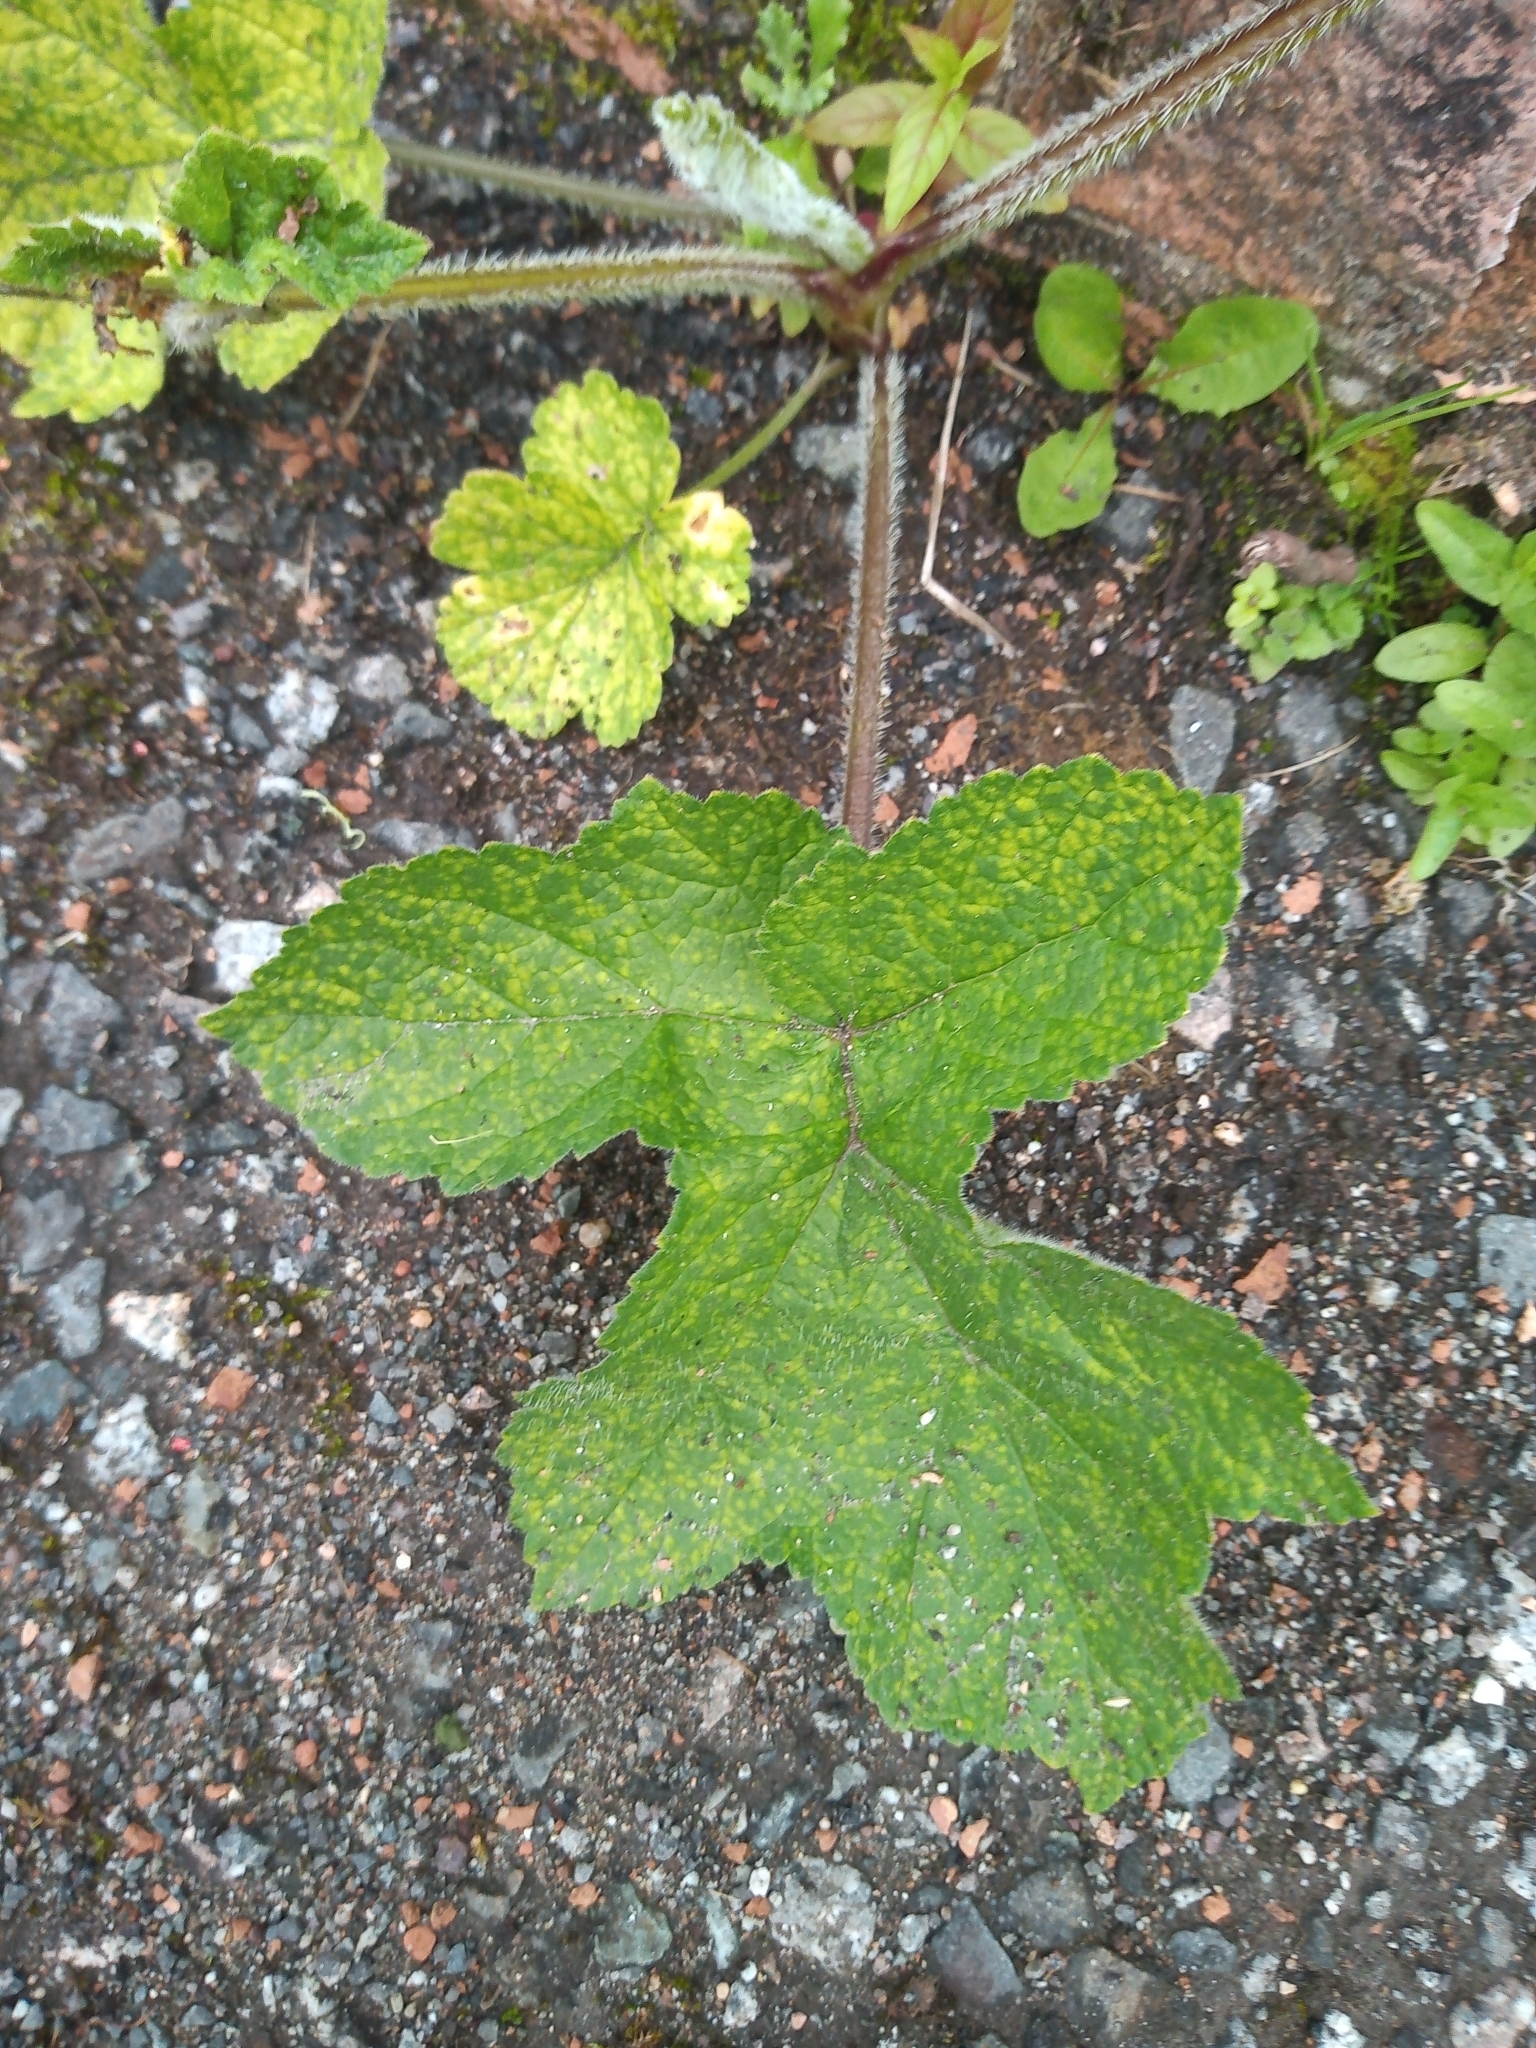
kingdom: Plantae
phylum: Tracheophyta
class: Magnoliopsida
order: Apiales
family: Apiaceae
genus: Heracleum
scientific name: Heracleum sphondylium
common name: Hogweed
